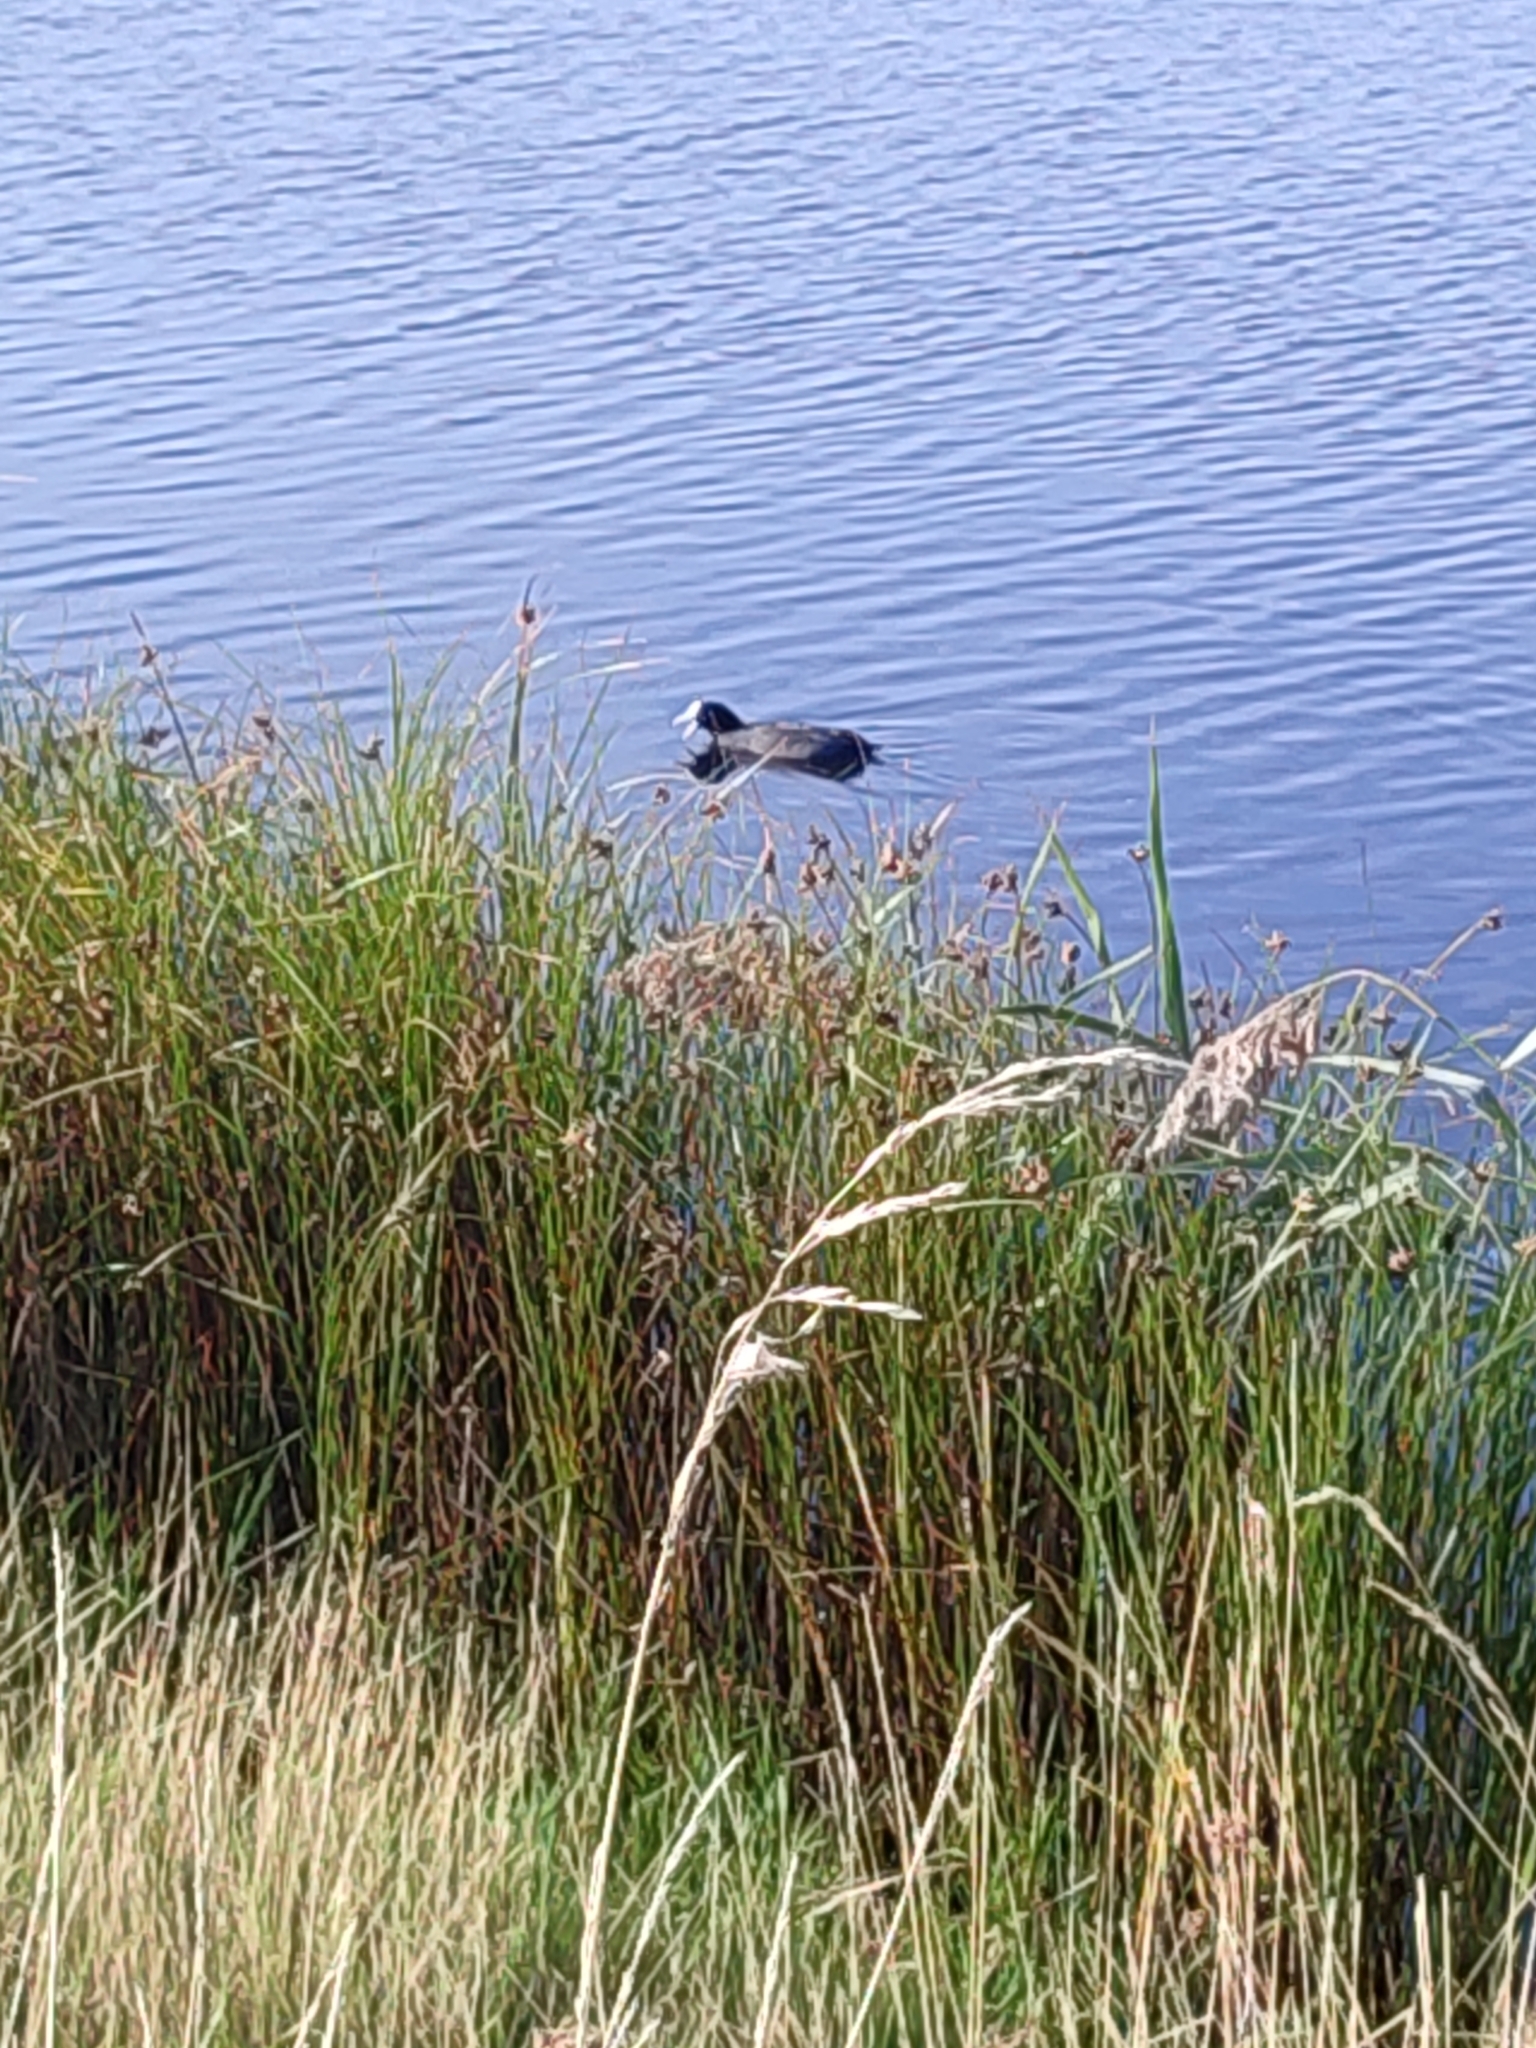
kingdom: Animalia
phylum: Chordata
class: Aves
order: Gruiformes
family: Rallidae
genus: Fulica
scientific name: Fulica atra
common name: Eurasian coot
